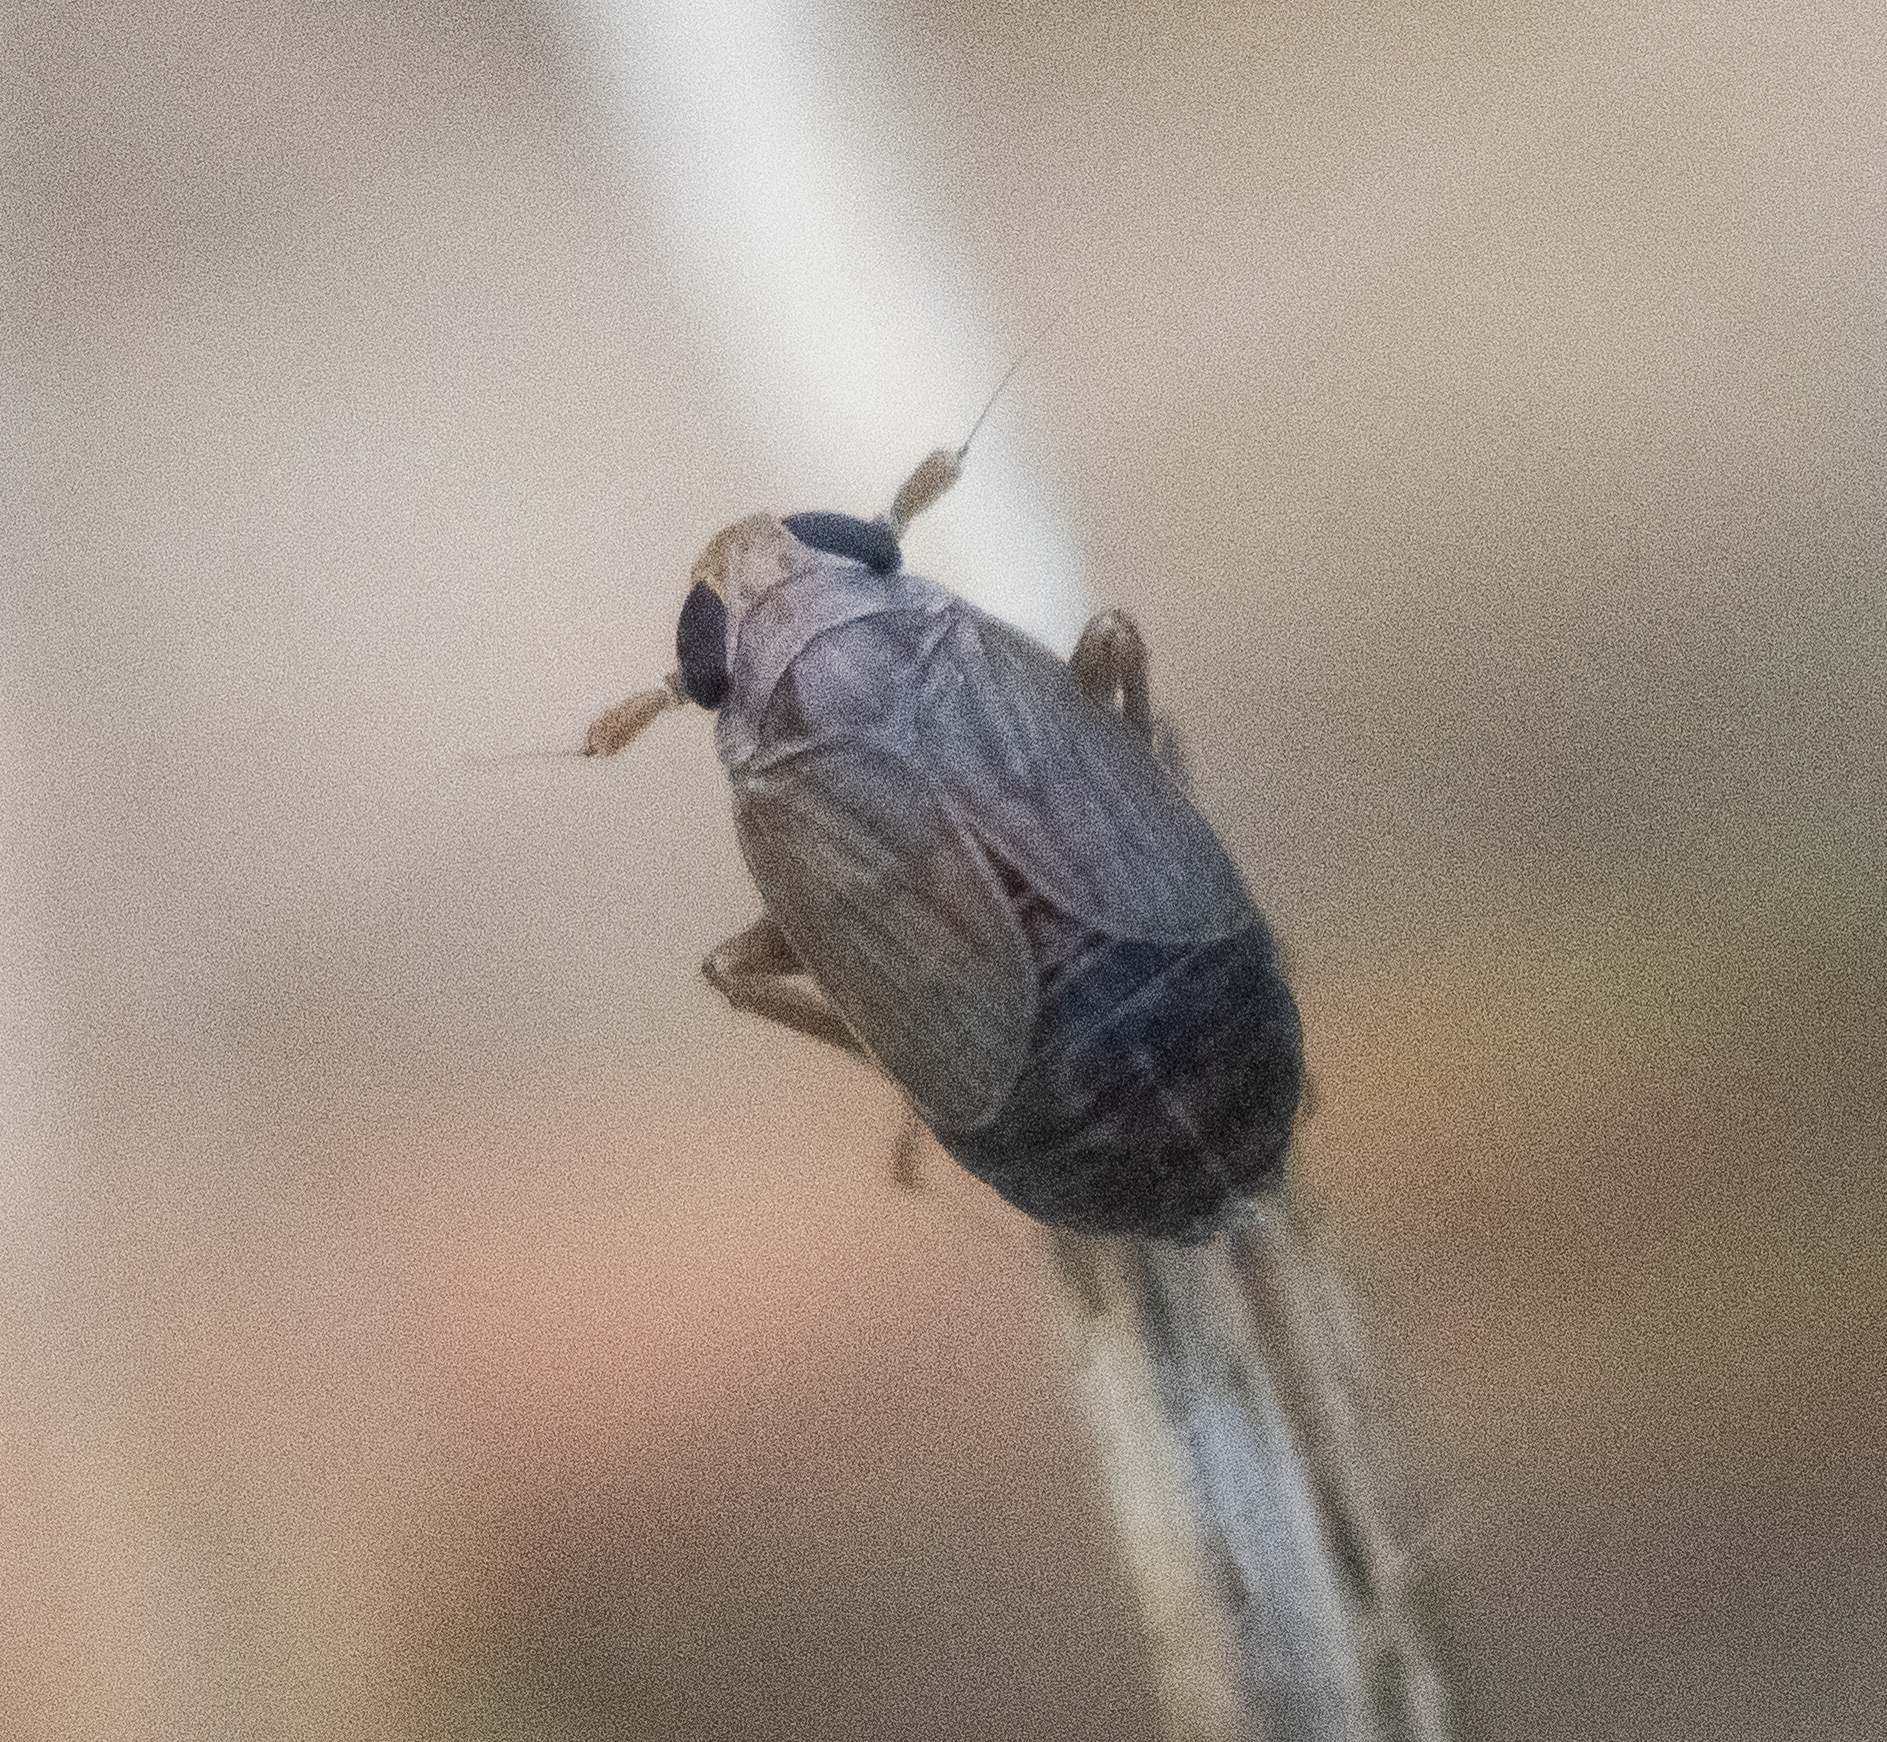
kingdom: Animalia
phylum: Arthropoda
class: Insecta
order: Hemiptera
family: Delphacidae
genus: Kosswigianella
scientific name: Kosswigianella perusta
